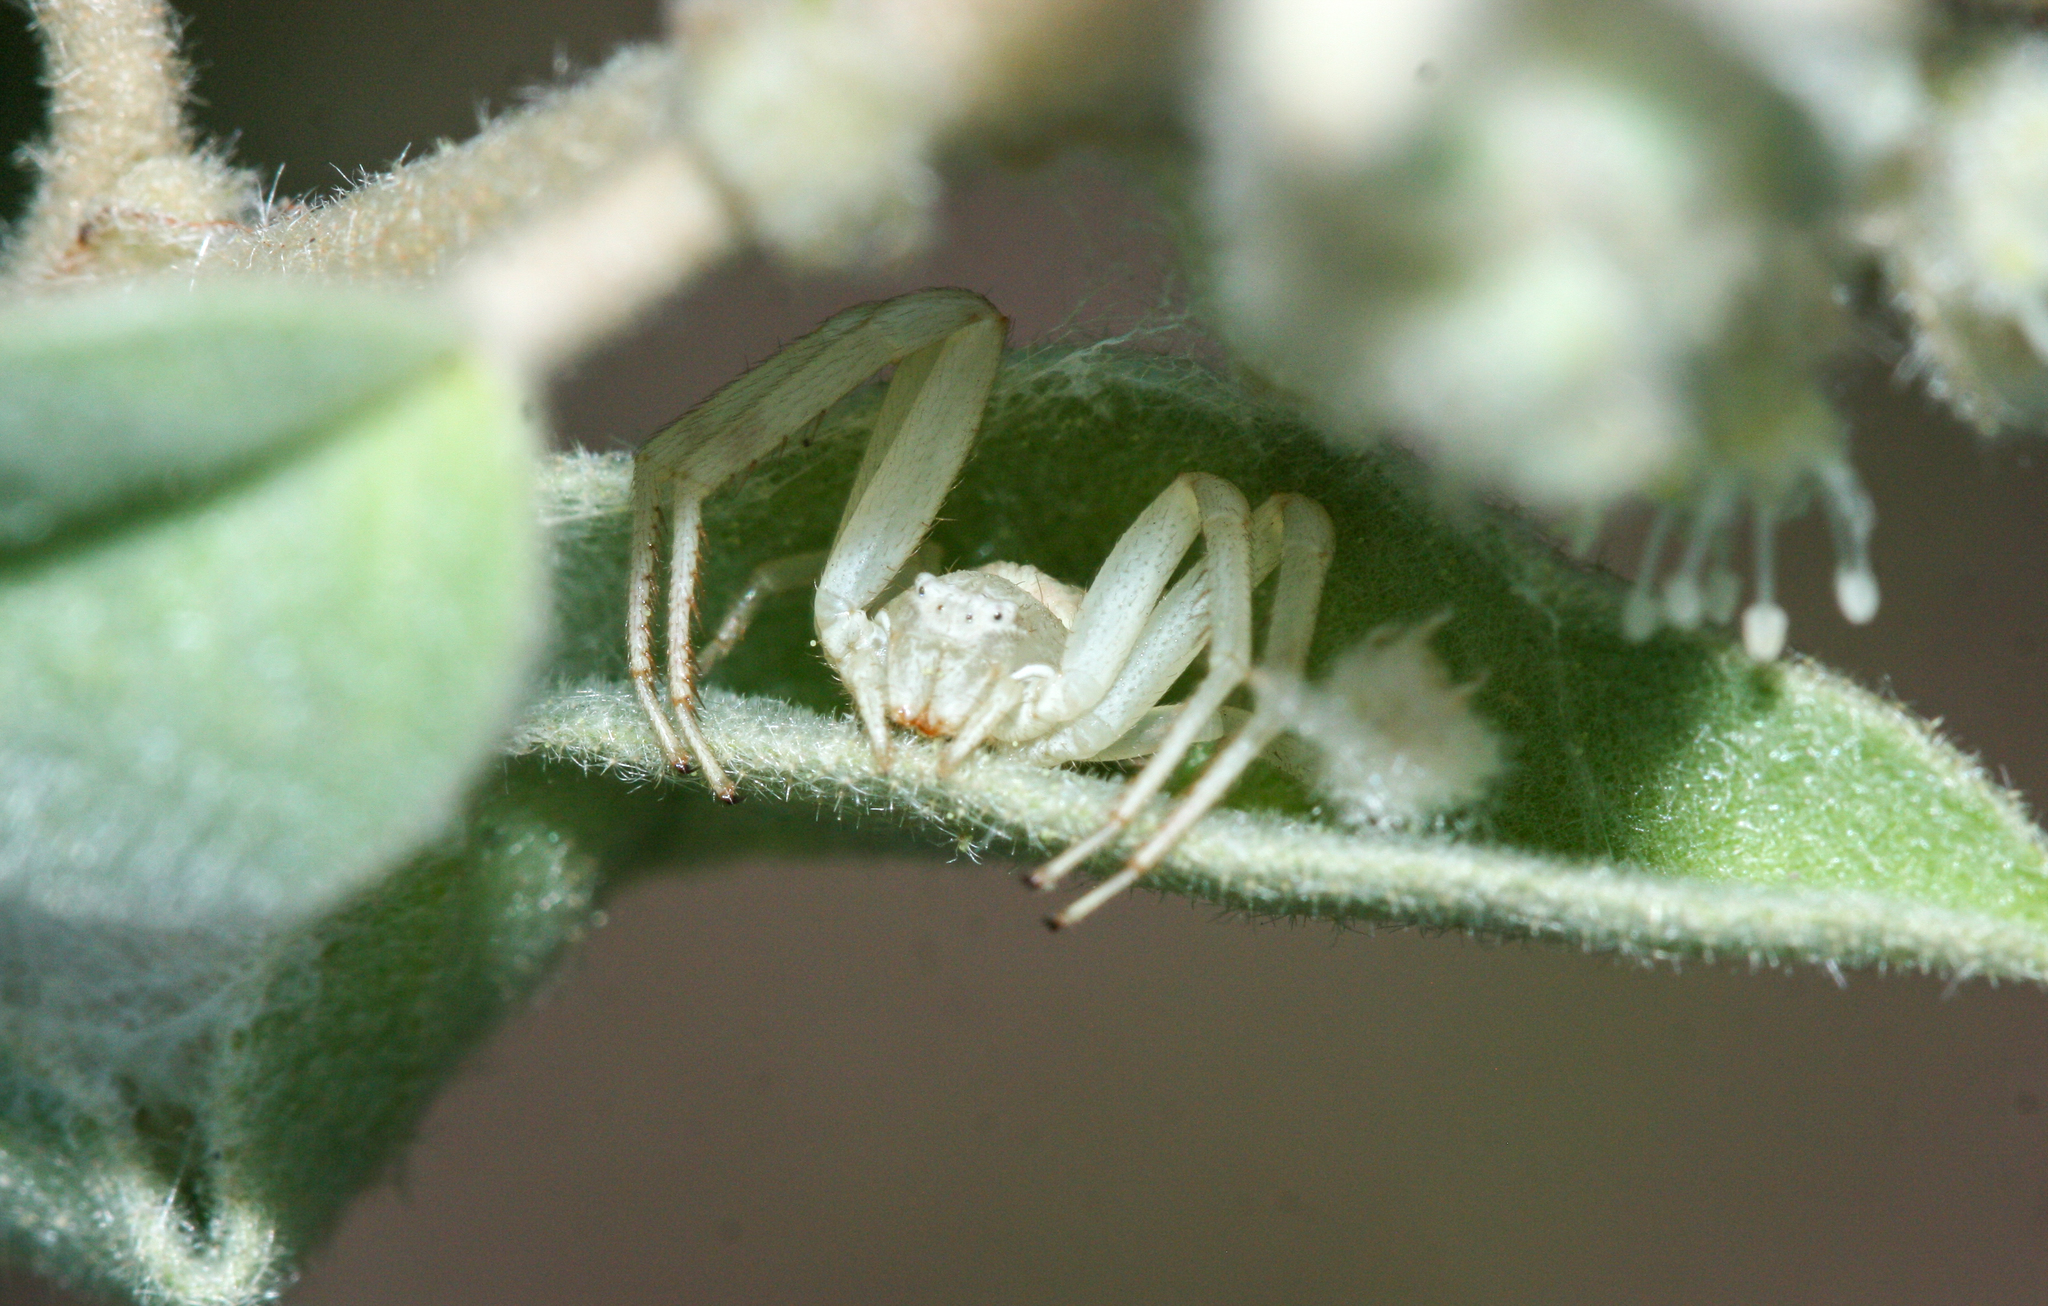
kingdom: Animalia
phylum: Arthropoda
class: Arachnida
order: Araneae
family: Thomisidae
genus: Mecaphesa
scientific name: Mecaphesa asperata
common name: Crab spiders
